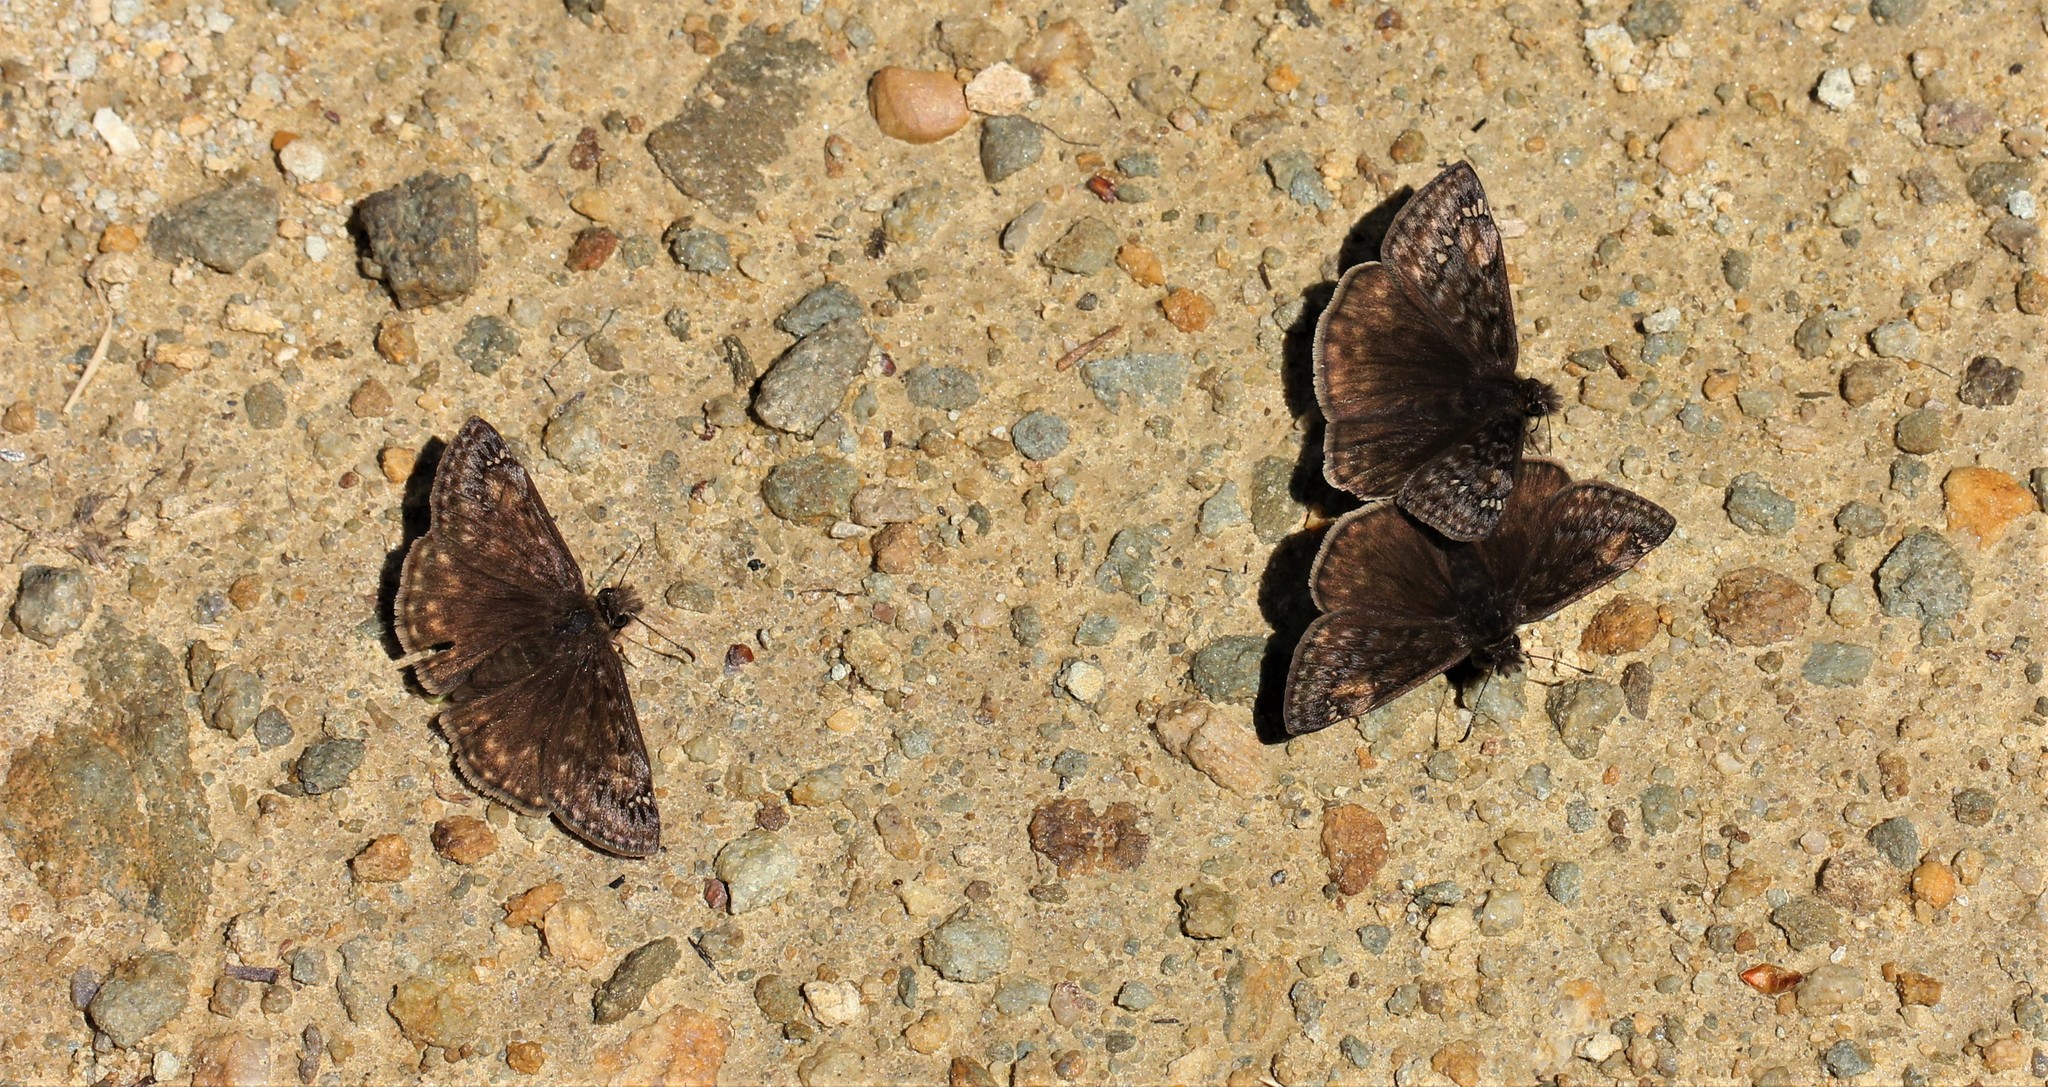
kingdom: Animalia
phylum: Arthropoda
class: Insecta
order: Lepidoptera
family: Hesperiidae
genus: Erynnis
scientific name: Erynnis juvenalis
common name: Juvenal's duskywing
